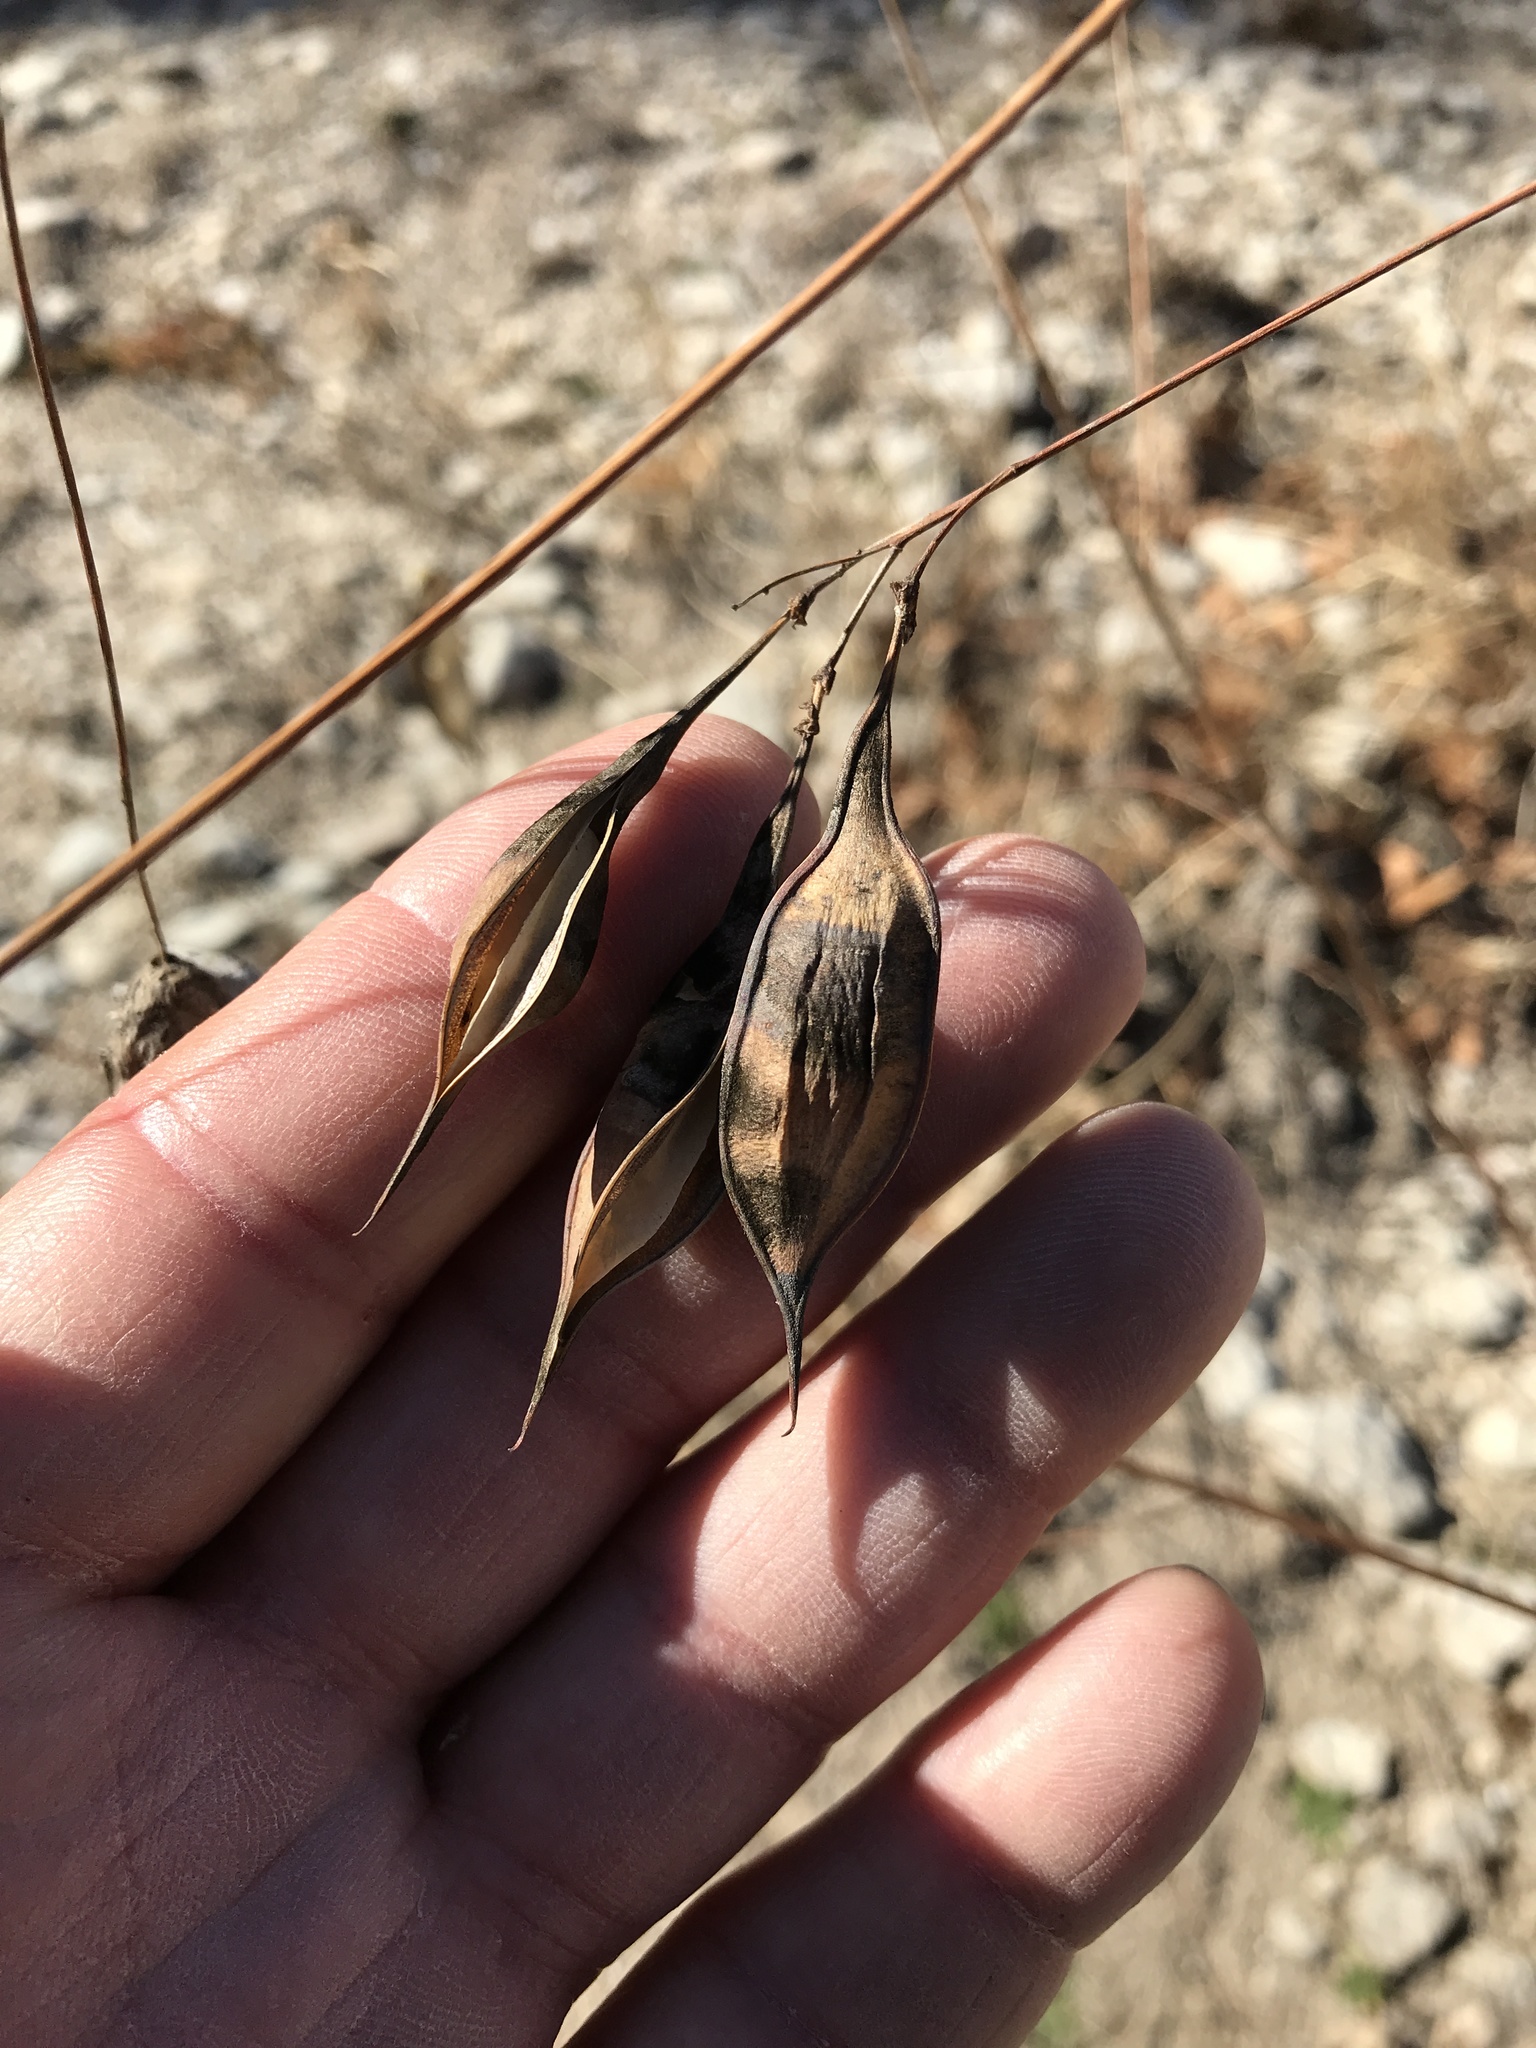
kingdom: Plantae
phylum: Tracheophyta
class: Magnoliopsida
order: Fabales
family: Fabaceae
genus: Sesbania
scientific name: Sesbania vesicaria
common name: Bagpod
